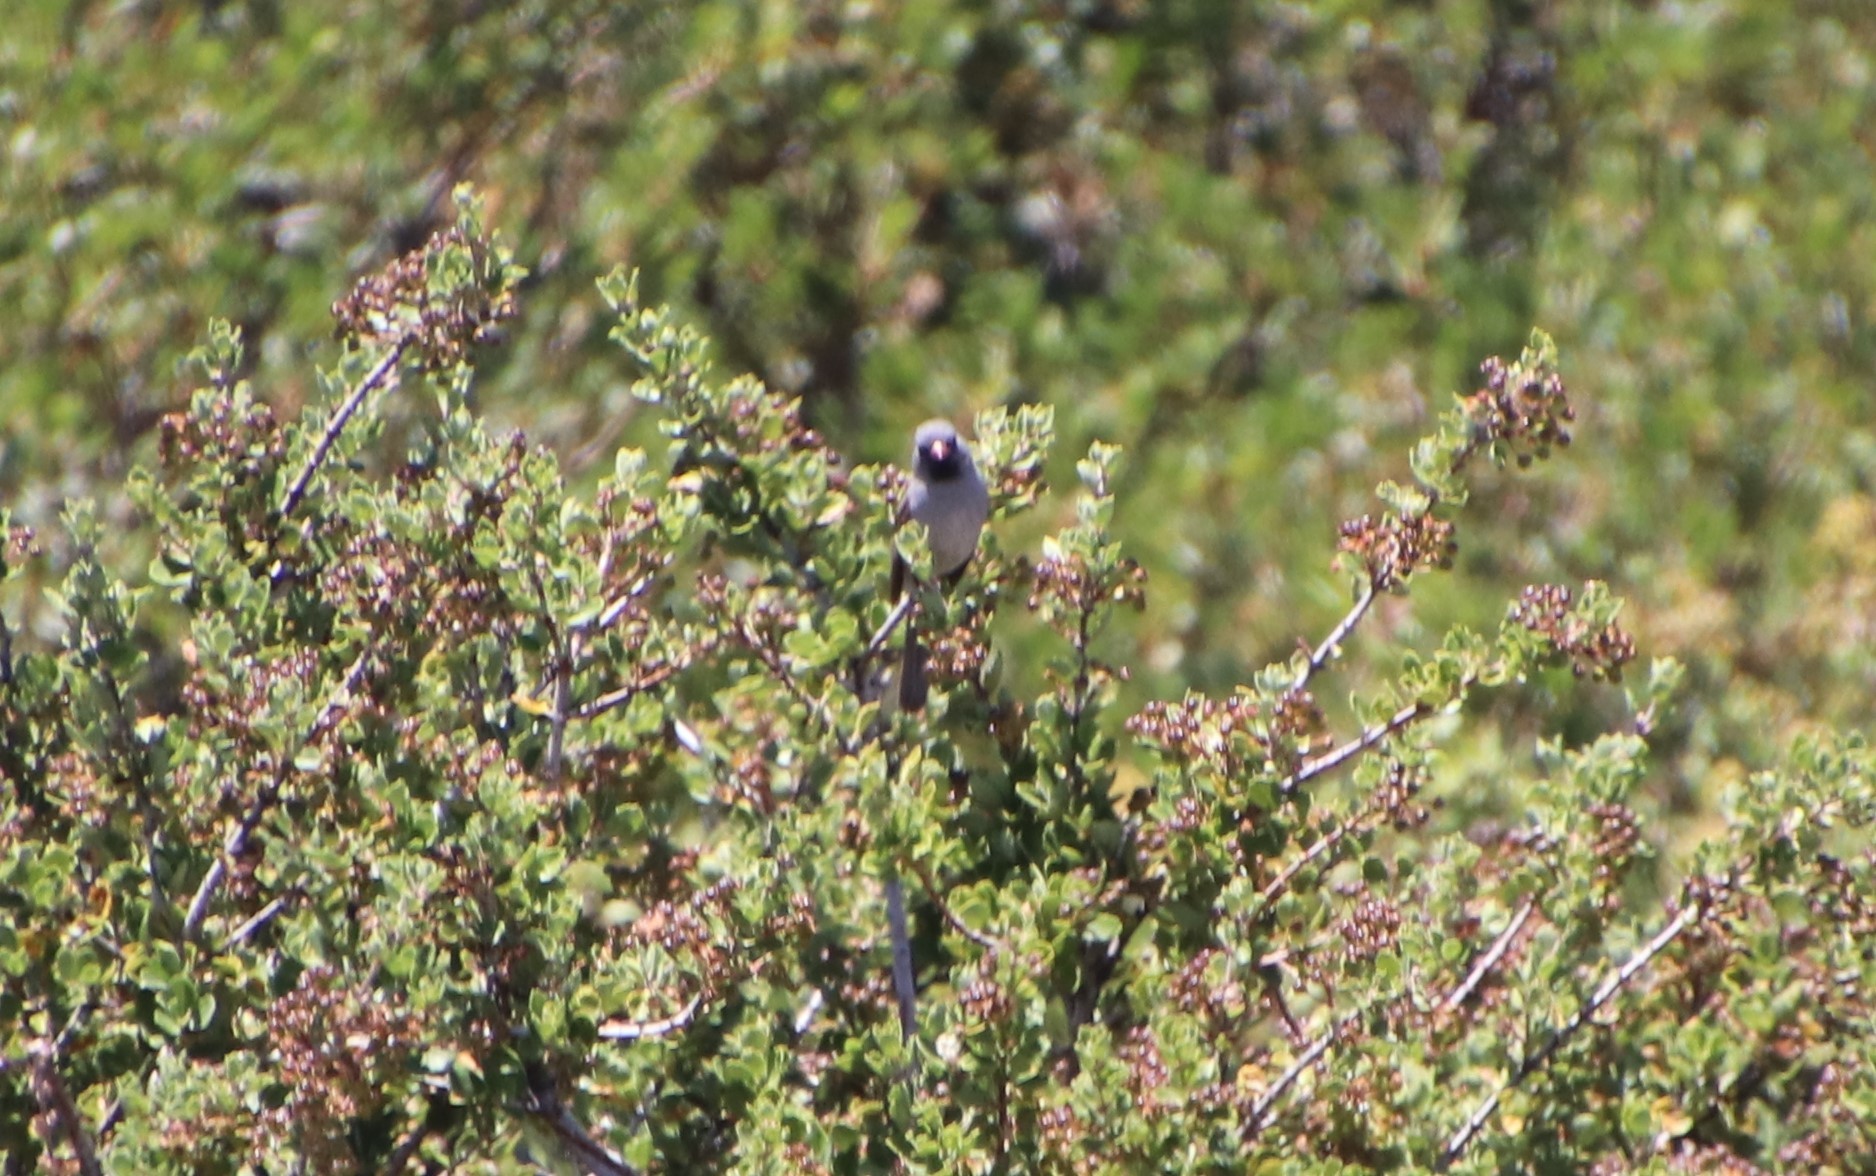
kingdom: Animalia
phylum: Chordata
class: Aves
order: Passeriformes
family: Passerellidae
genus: Spizella
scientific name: Spizella atrogularis
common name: Black-chinned sparrow
